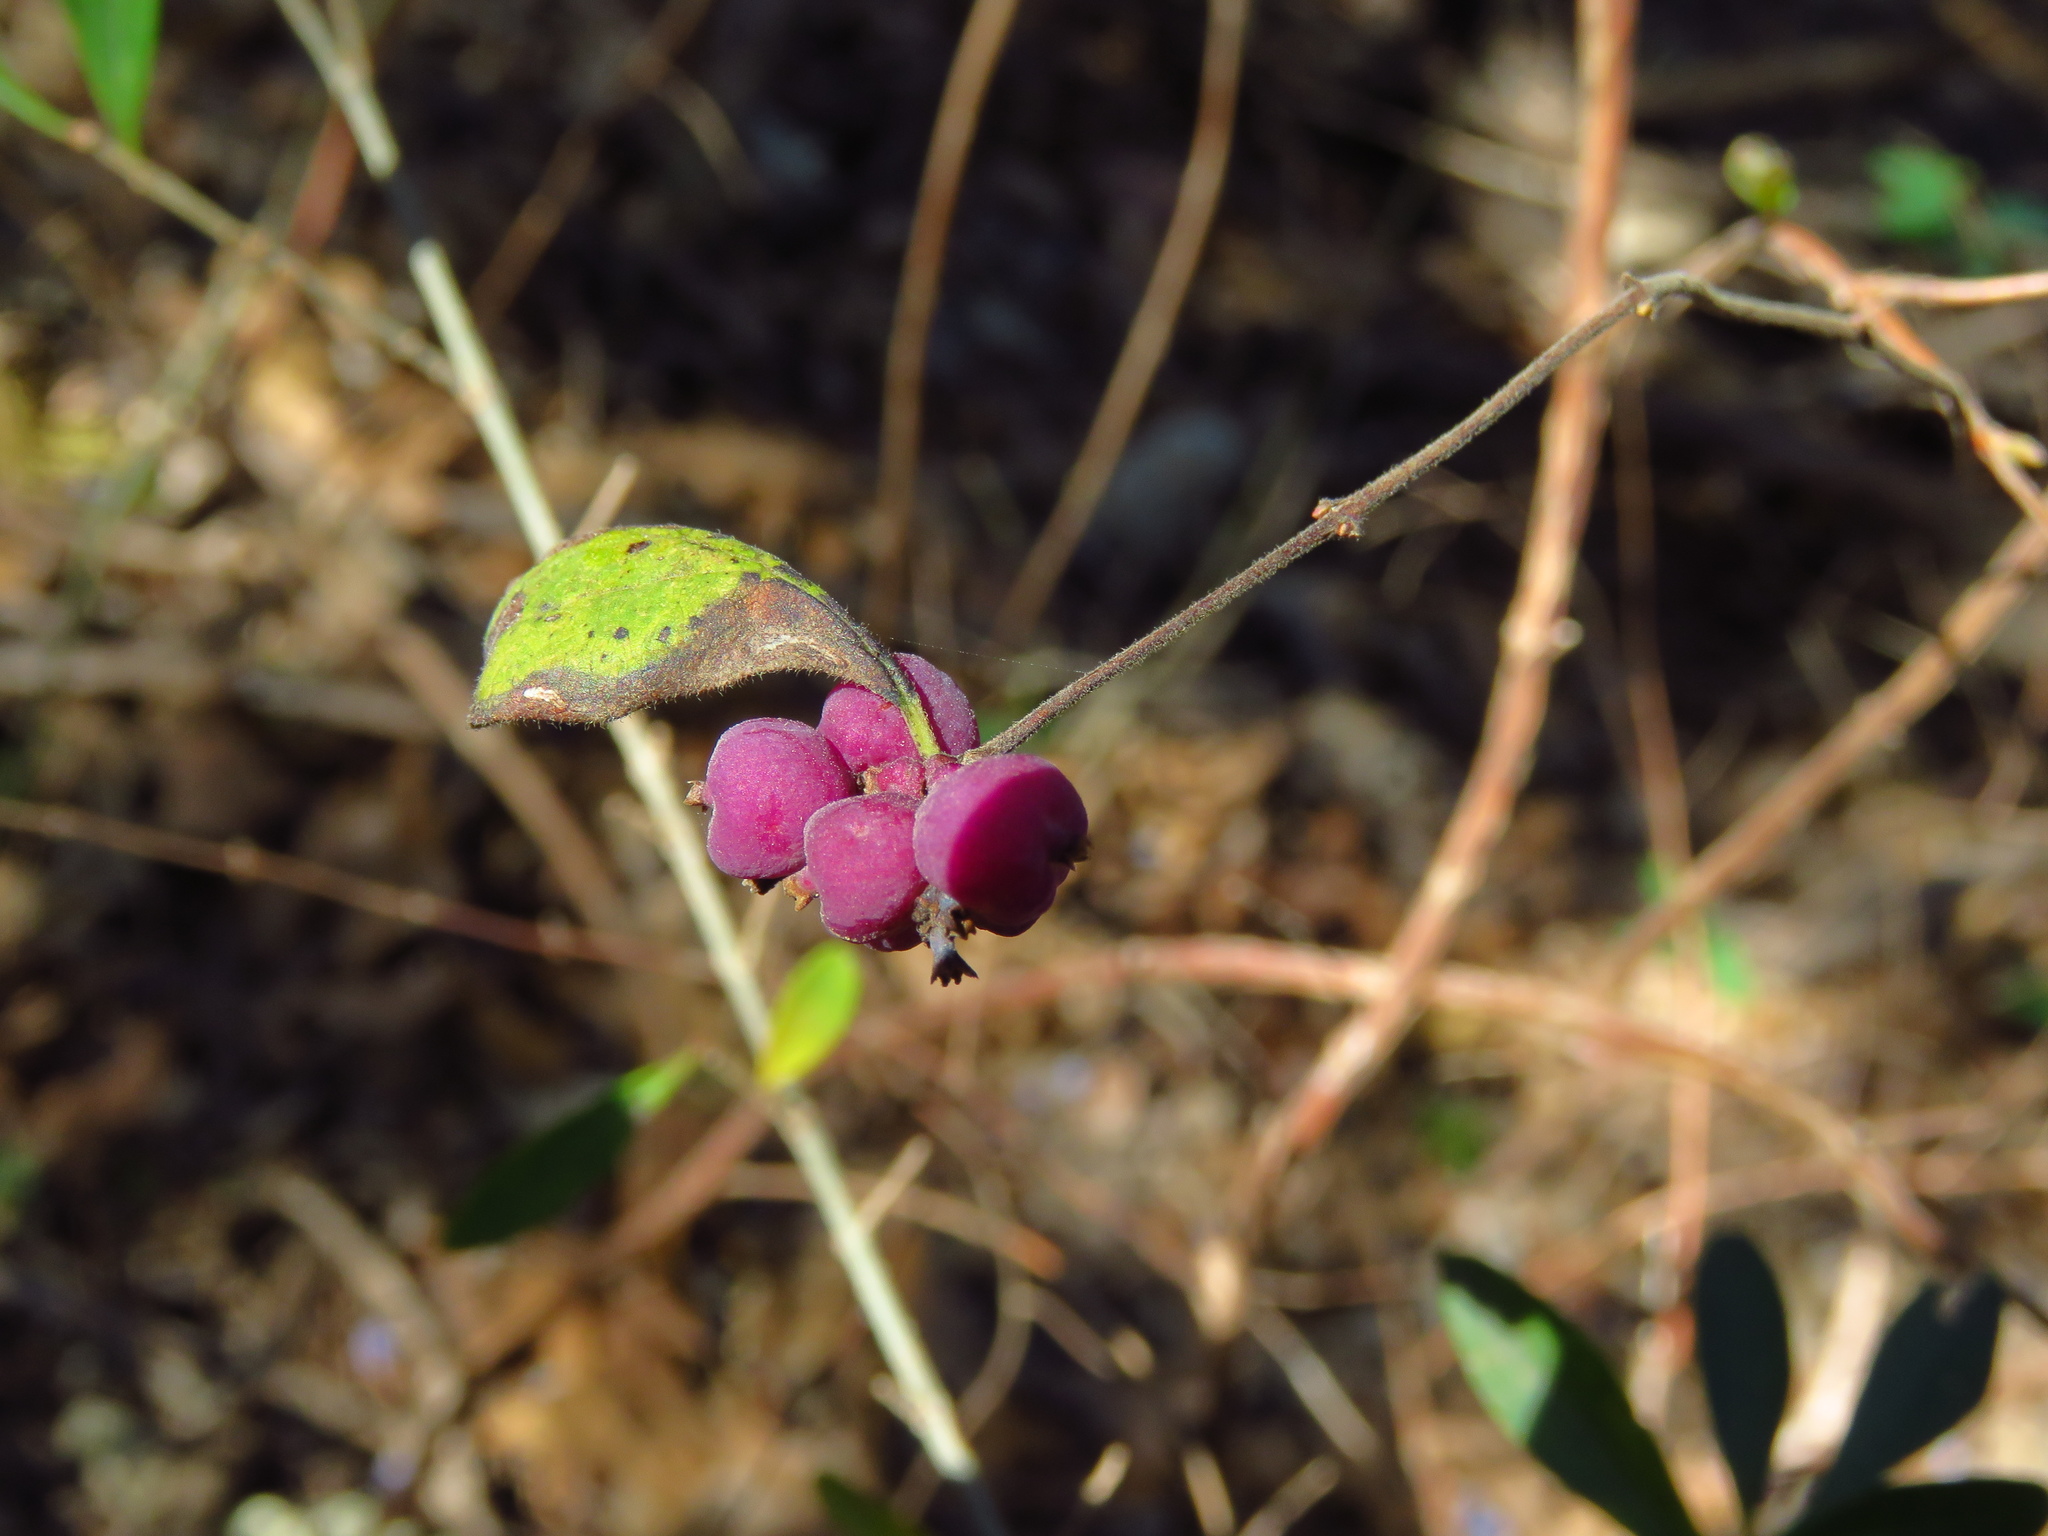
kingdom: Plantae
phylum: Tracheophyta
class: Magnoliopsida
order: Dipsacales
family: Caprifoliaceae
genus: Symphoricarpos
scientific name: Symphoricarpos orbiculatus
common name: Coralberry
